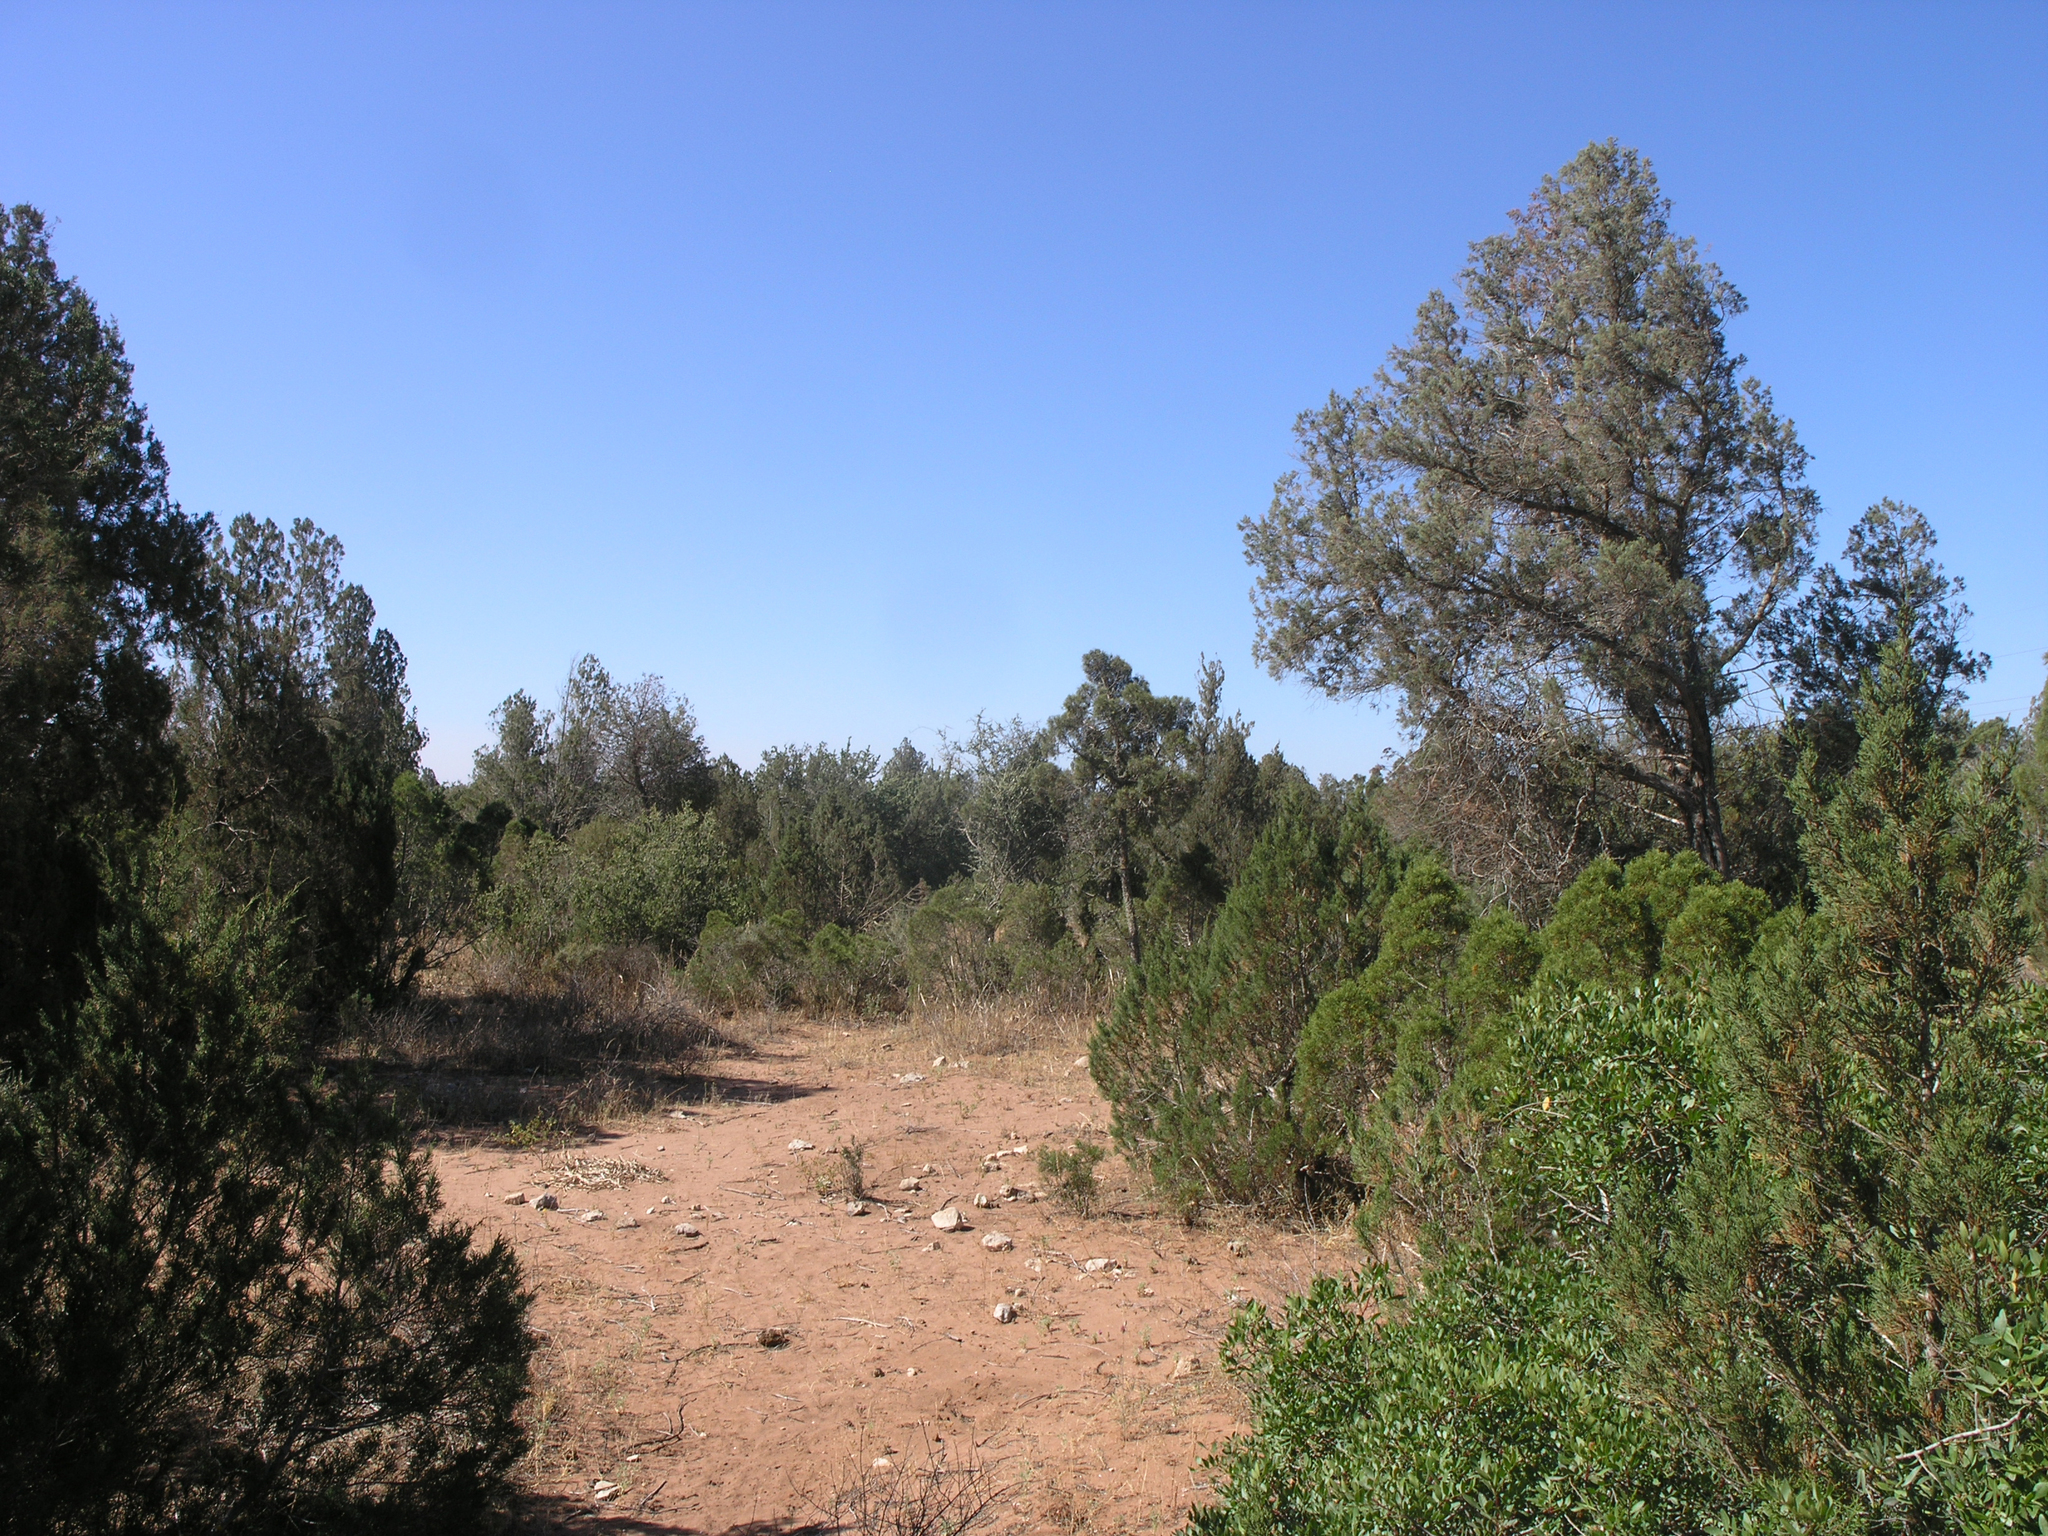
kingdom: Plantae
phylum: Tracheophyta
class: Pinopsida
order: Pinales
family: Cupressaceae
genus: Juniperus
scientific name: Juniperus phoenicea
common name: Phoenician juniper
